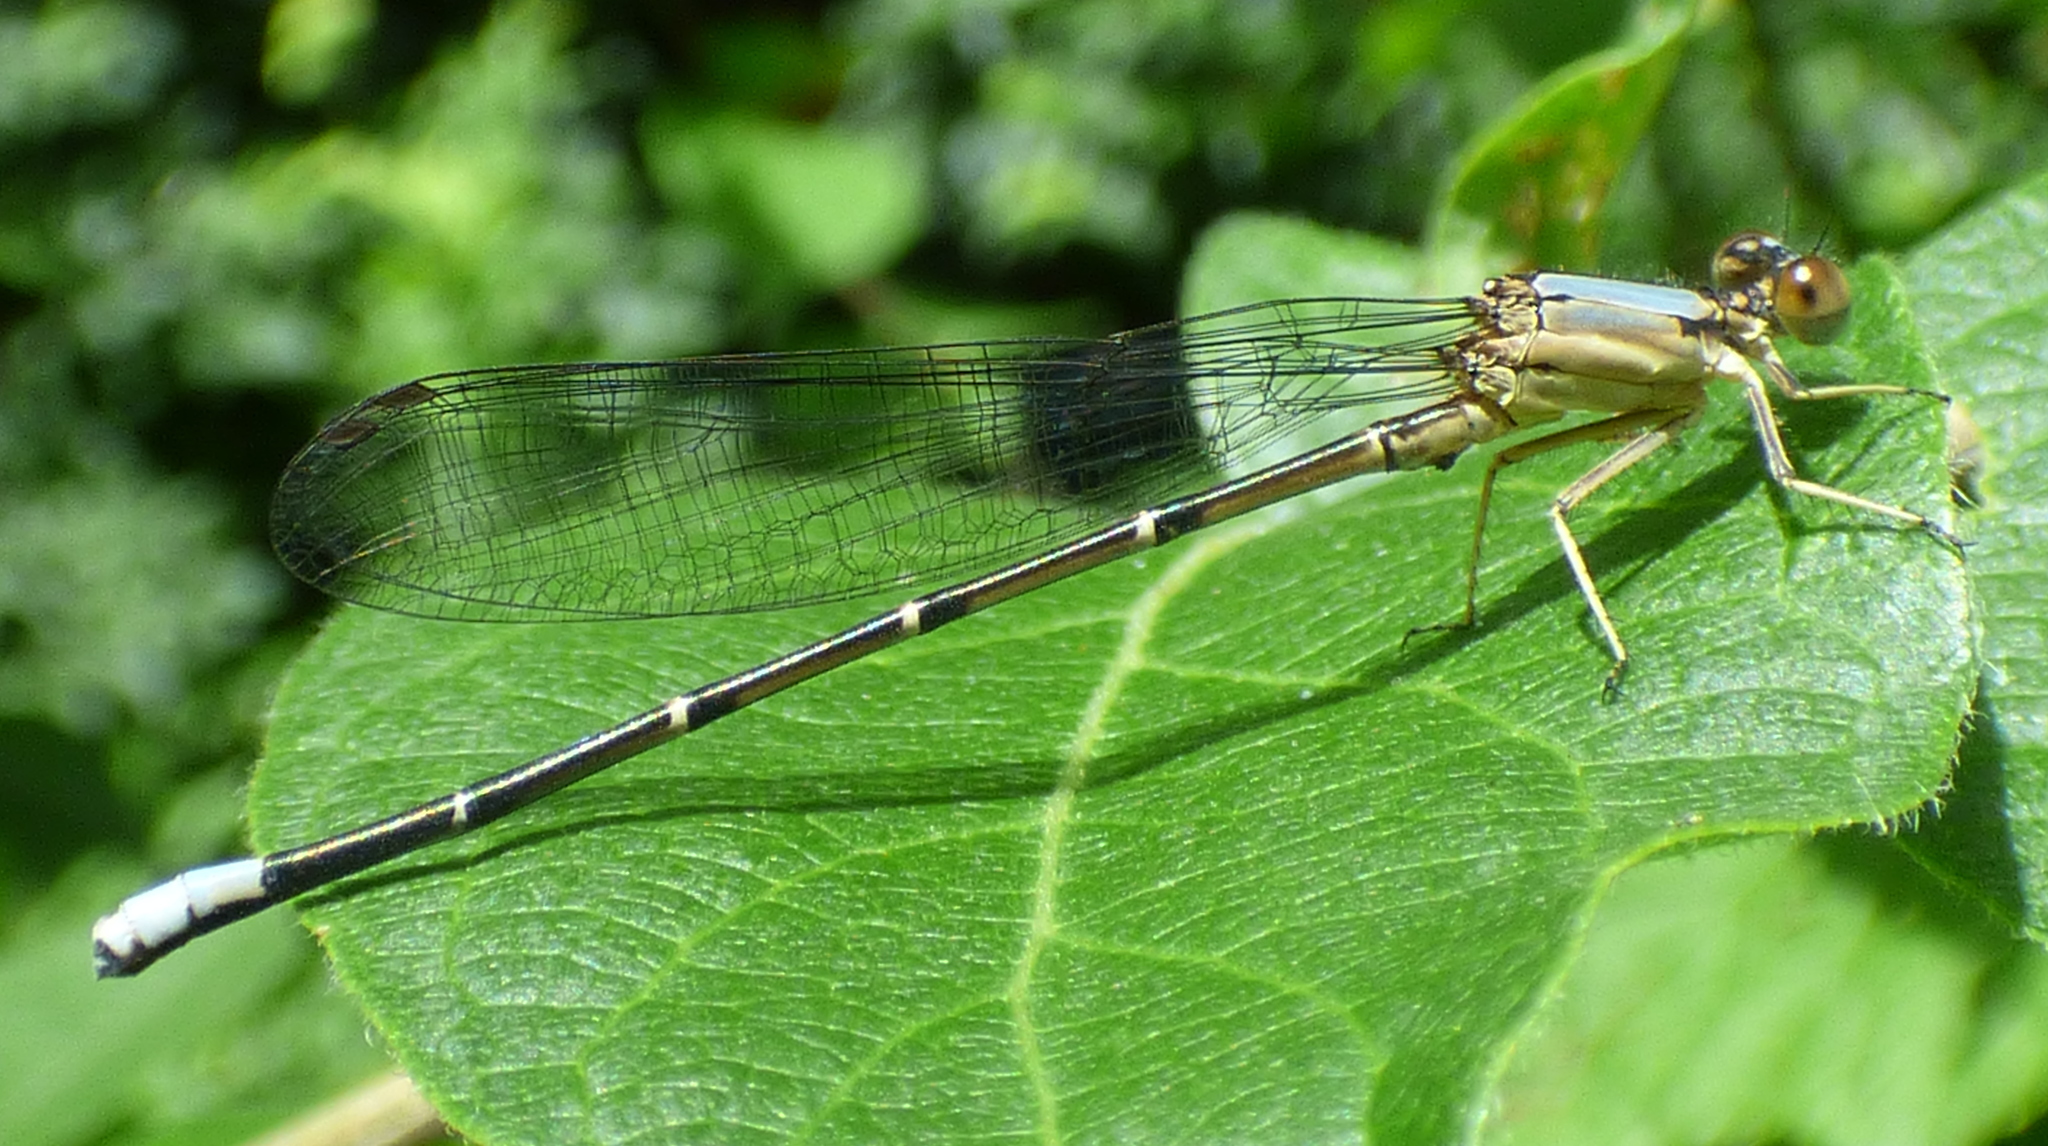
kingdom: Animalia
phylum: Arthropoda
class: Insecta
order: Odonata
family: Coenagrionidae
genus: Argia
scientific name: Argia apicalis
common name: Blue-fronted dancer
